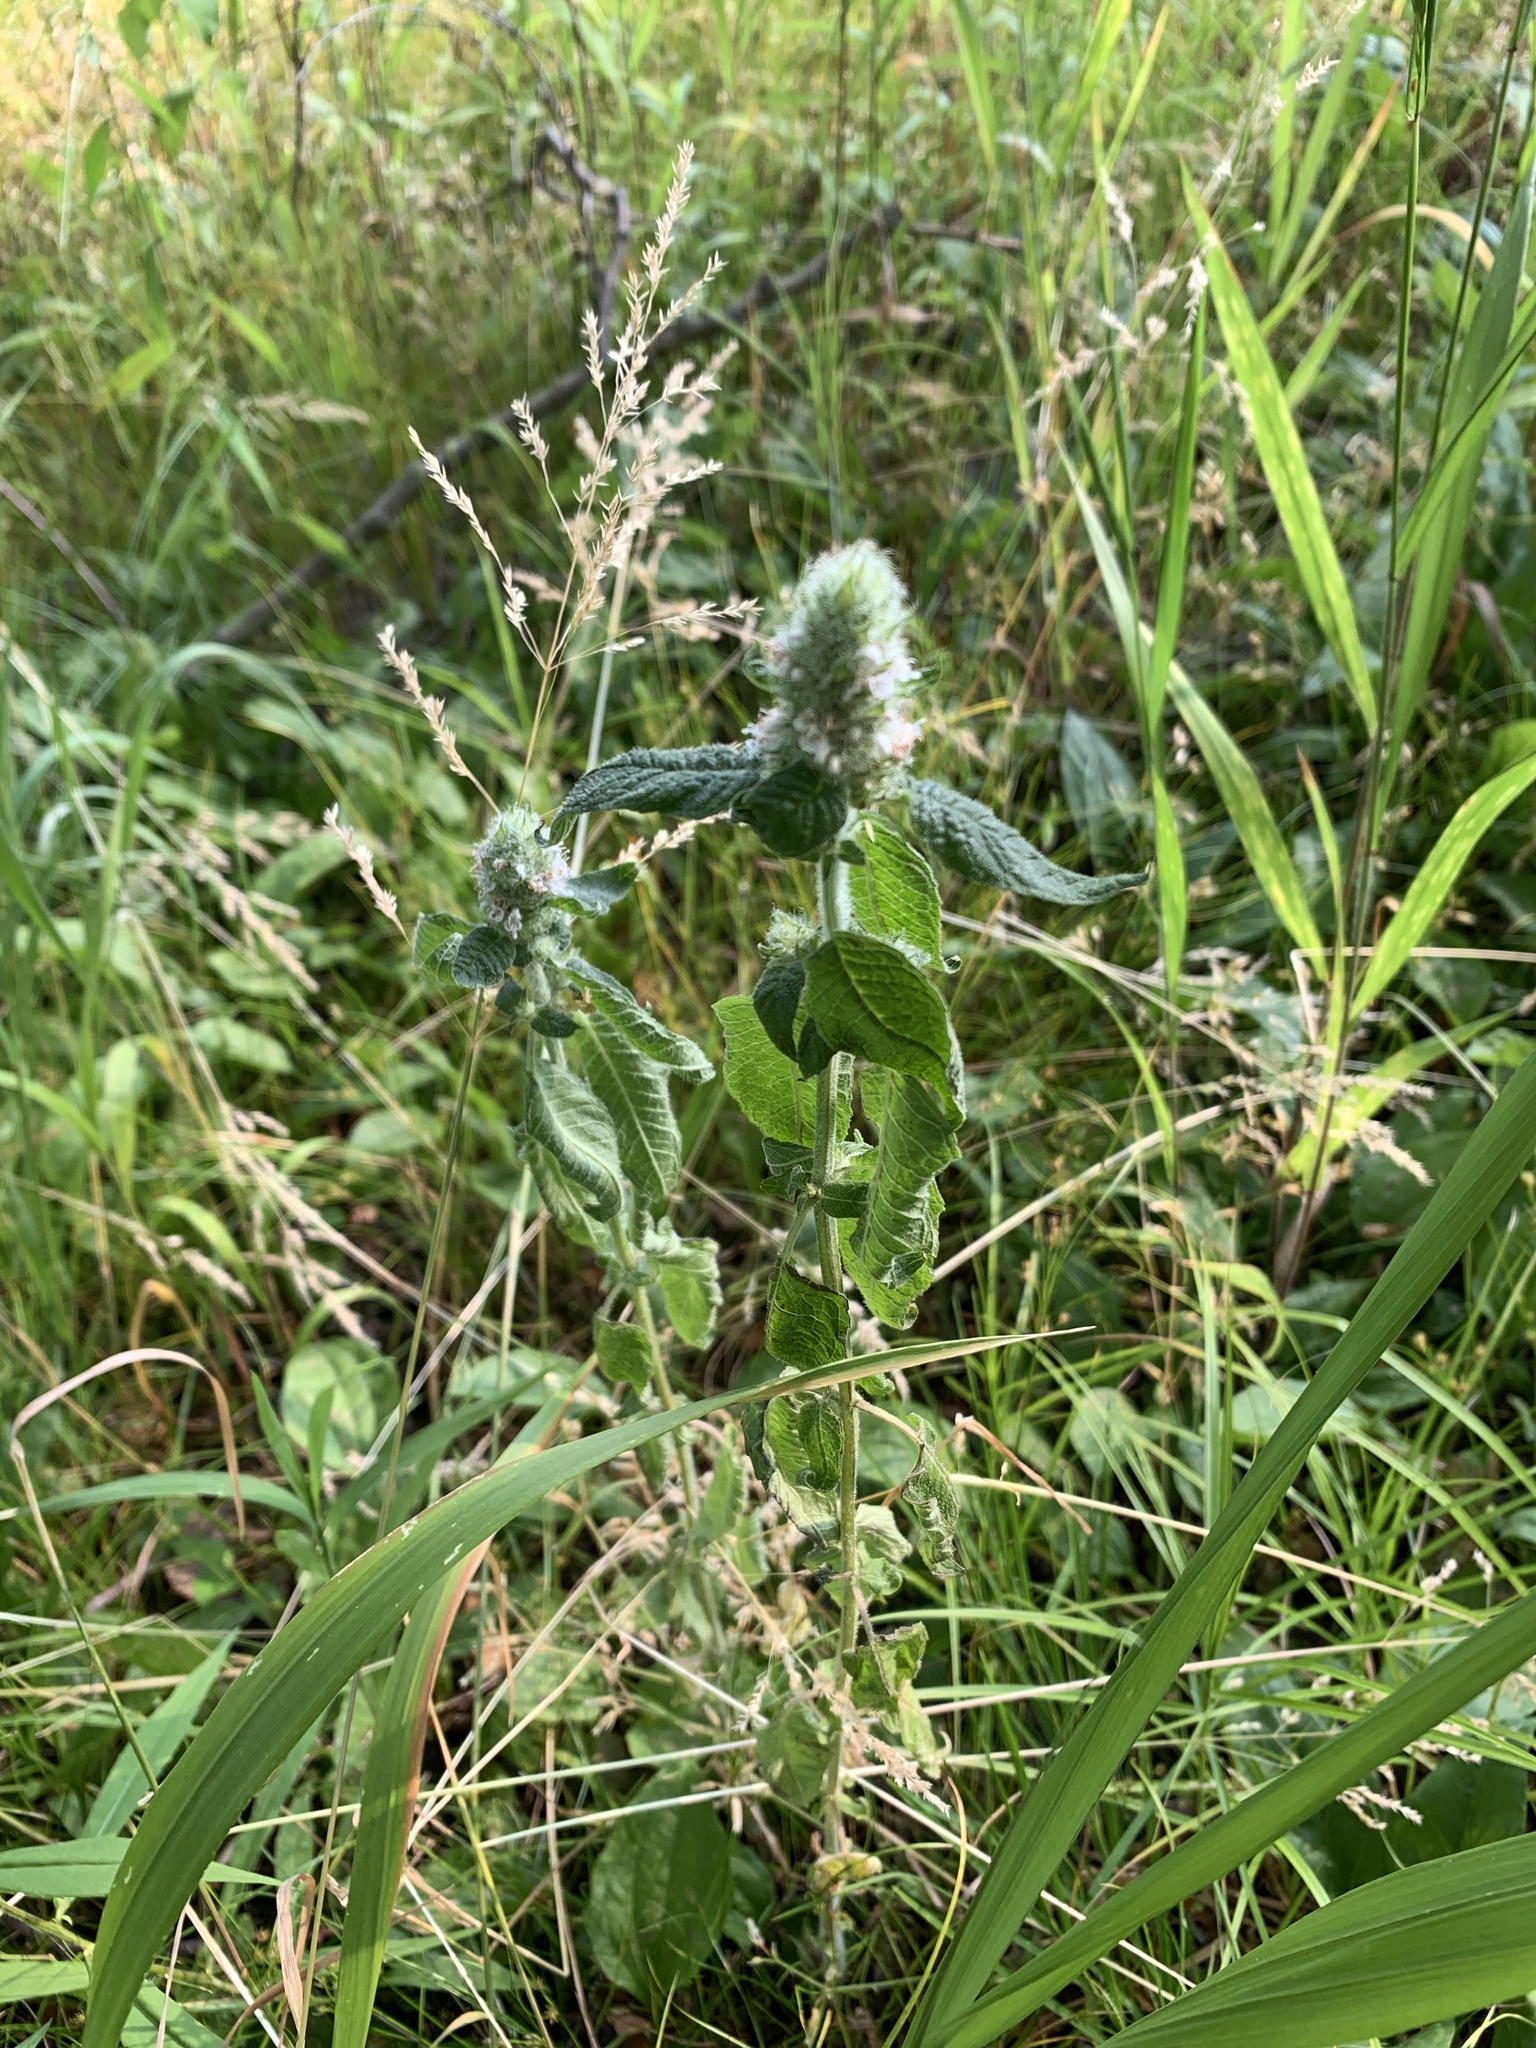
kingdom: Plantae
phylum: Tracheophyta
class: Magnoliopsida
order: Lamiales
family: Lamiaceae
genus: Blephilia
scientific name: Blephilia hirsuta
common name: Hairy blephilia
